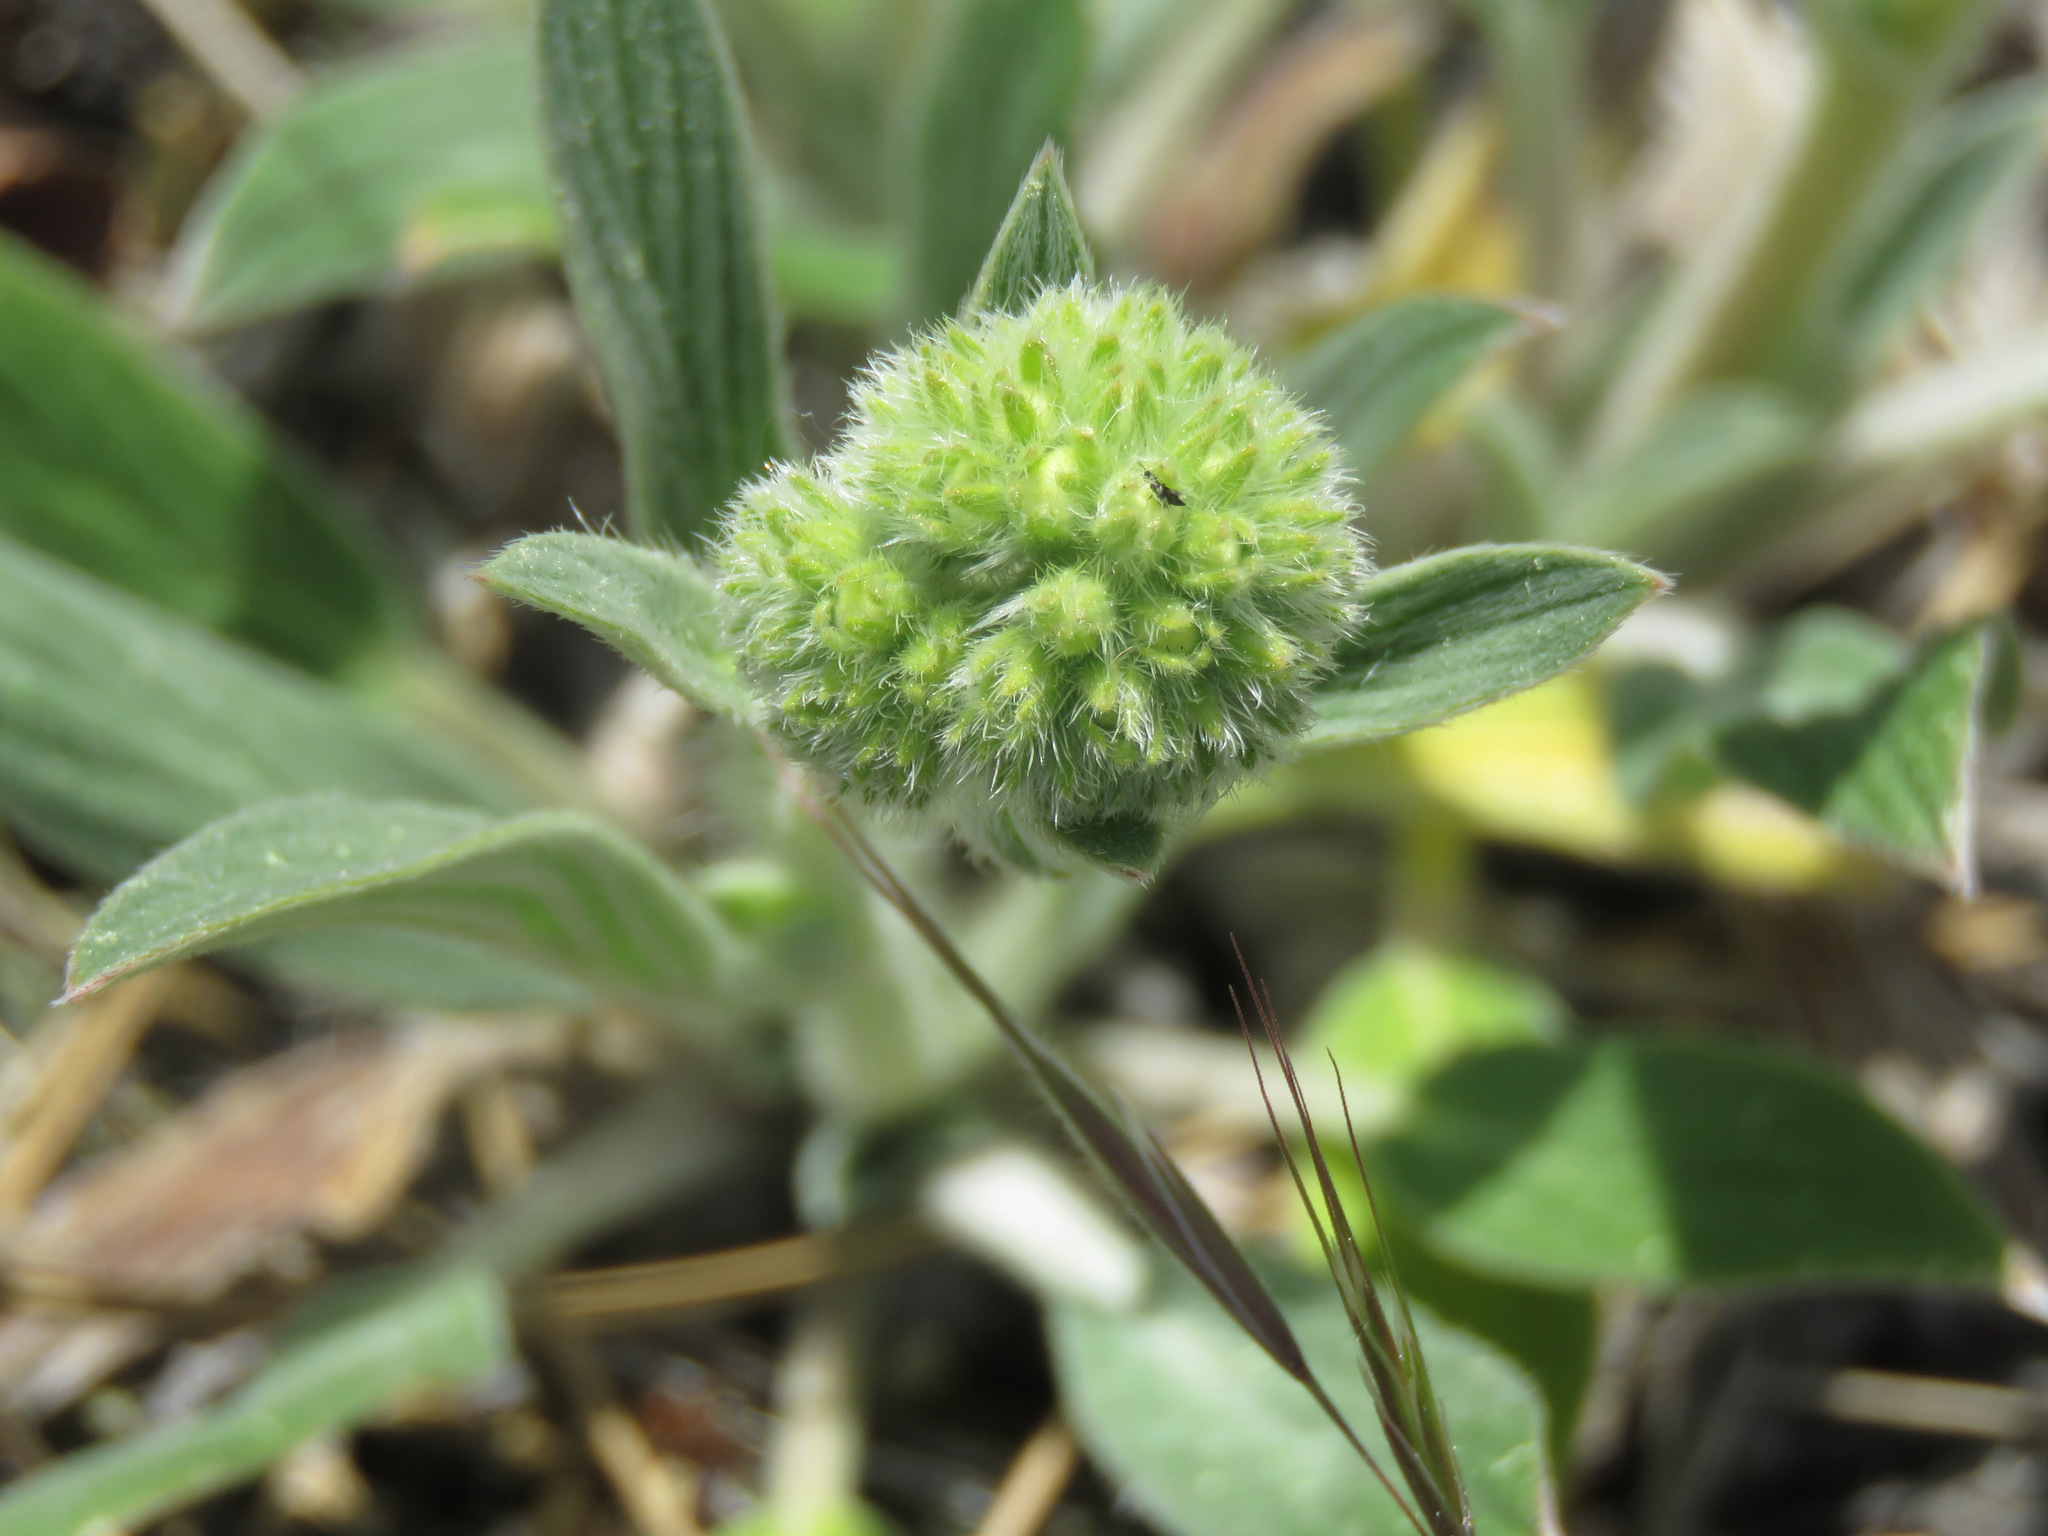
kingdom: Plantae
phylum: Tracheophyta
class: Magnoliopsida
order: Boraginales
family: Hydrophyllaceae
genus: Phacelia
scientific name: Phacelia hastata
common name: Silver-leaved phacelia
